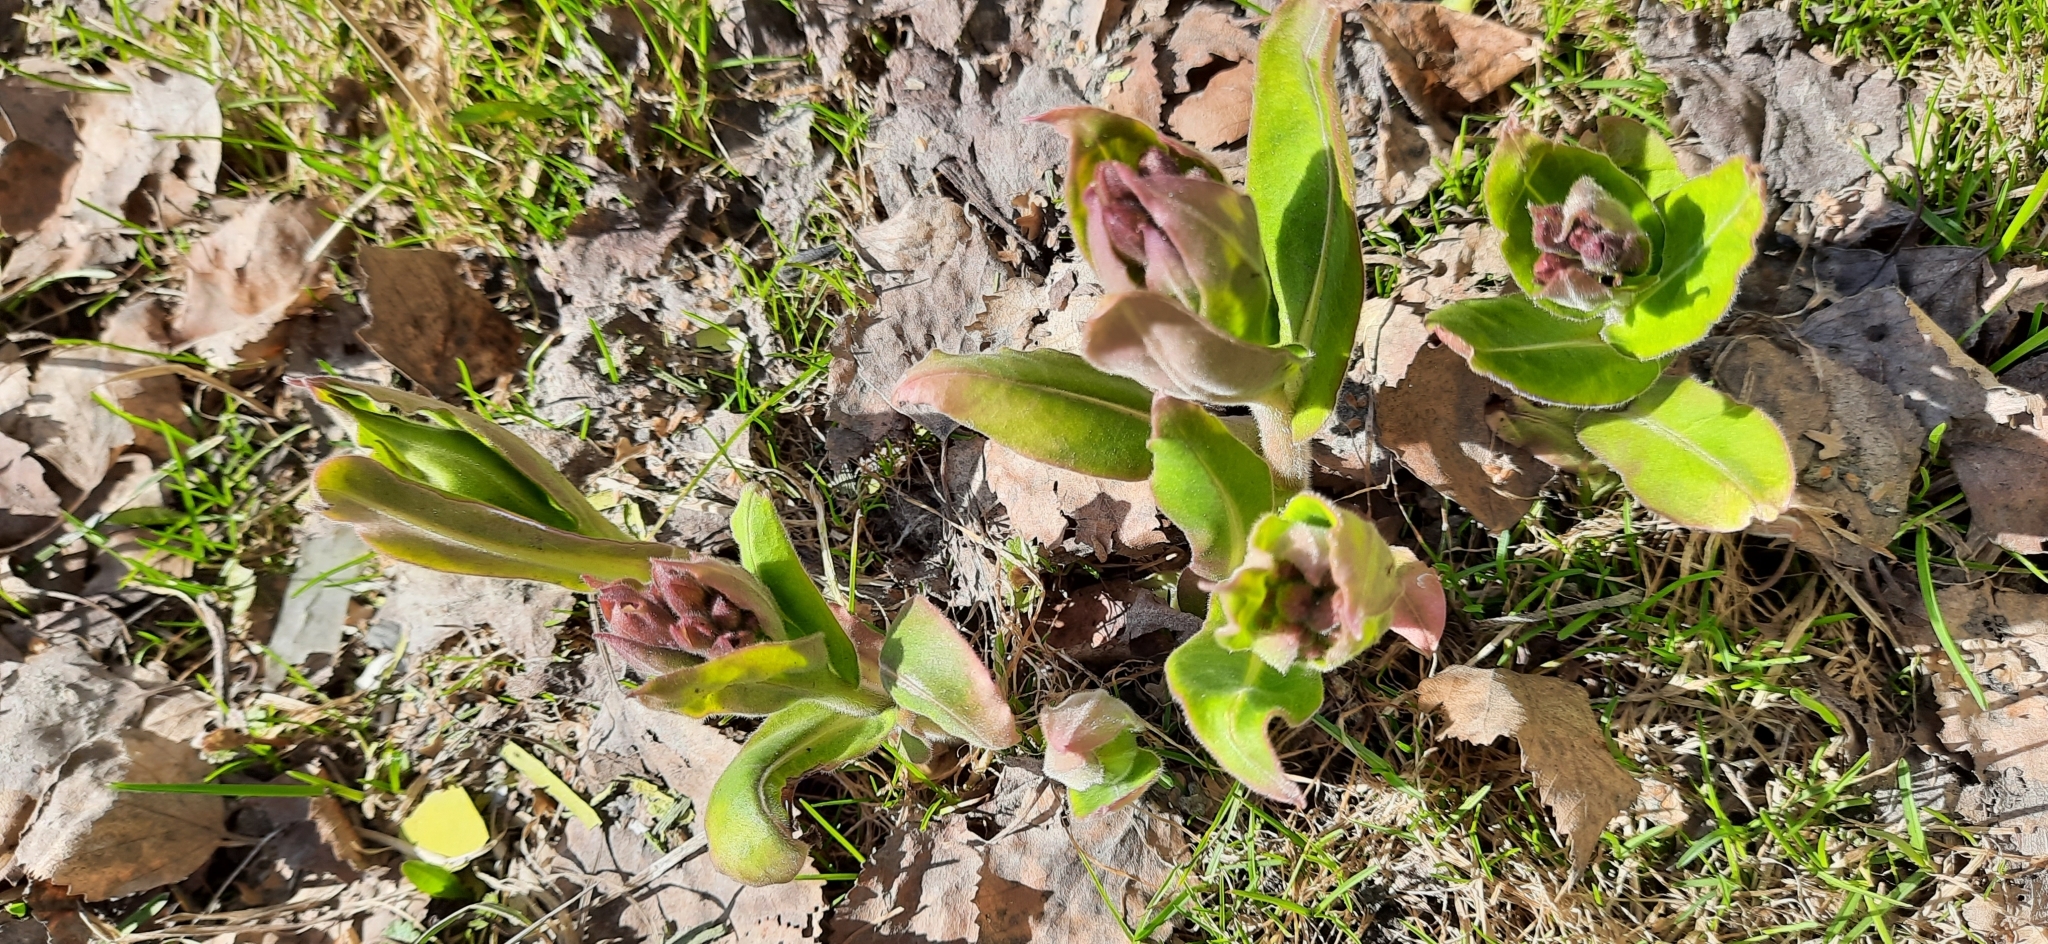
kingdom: Plantae
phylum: Tracheophyta
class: Magnoliopsida
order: Boraginales
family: Boraginaceae
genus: Pulmonaria
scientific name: Pulmonaria mollis
